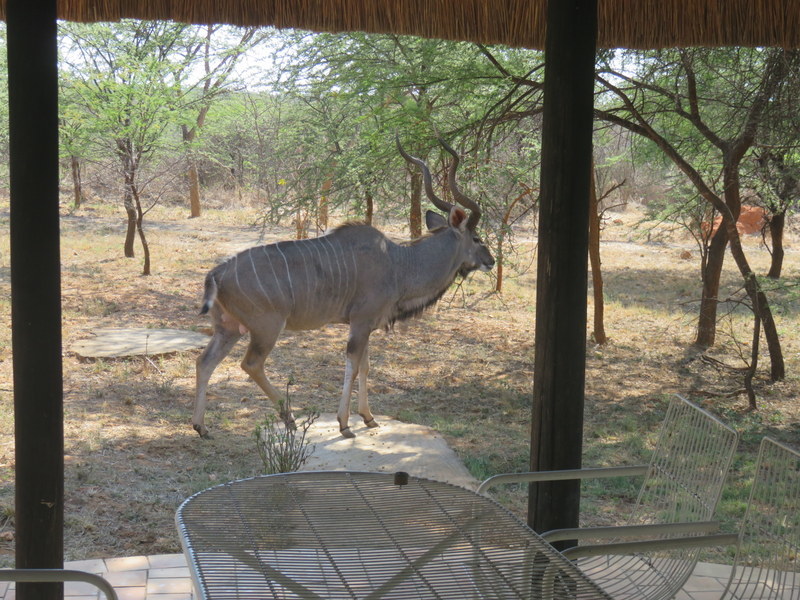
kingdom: Animalia
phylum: Chordata
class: Mammalia
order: Artiodactyla
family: Bovidae
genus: Tragelaphus
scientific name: Tragelaphus strepsiceros
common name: Greater kudu
